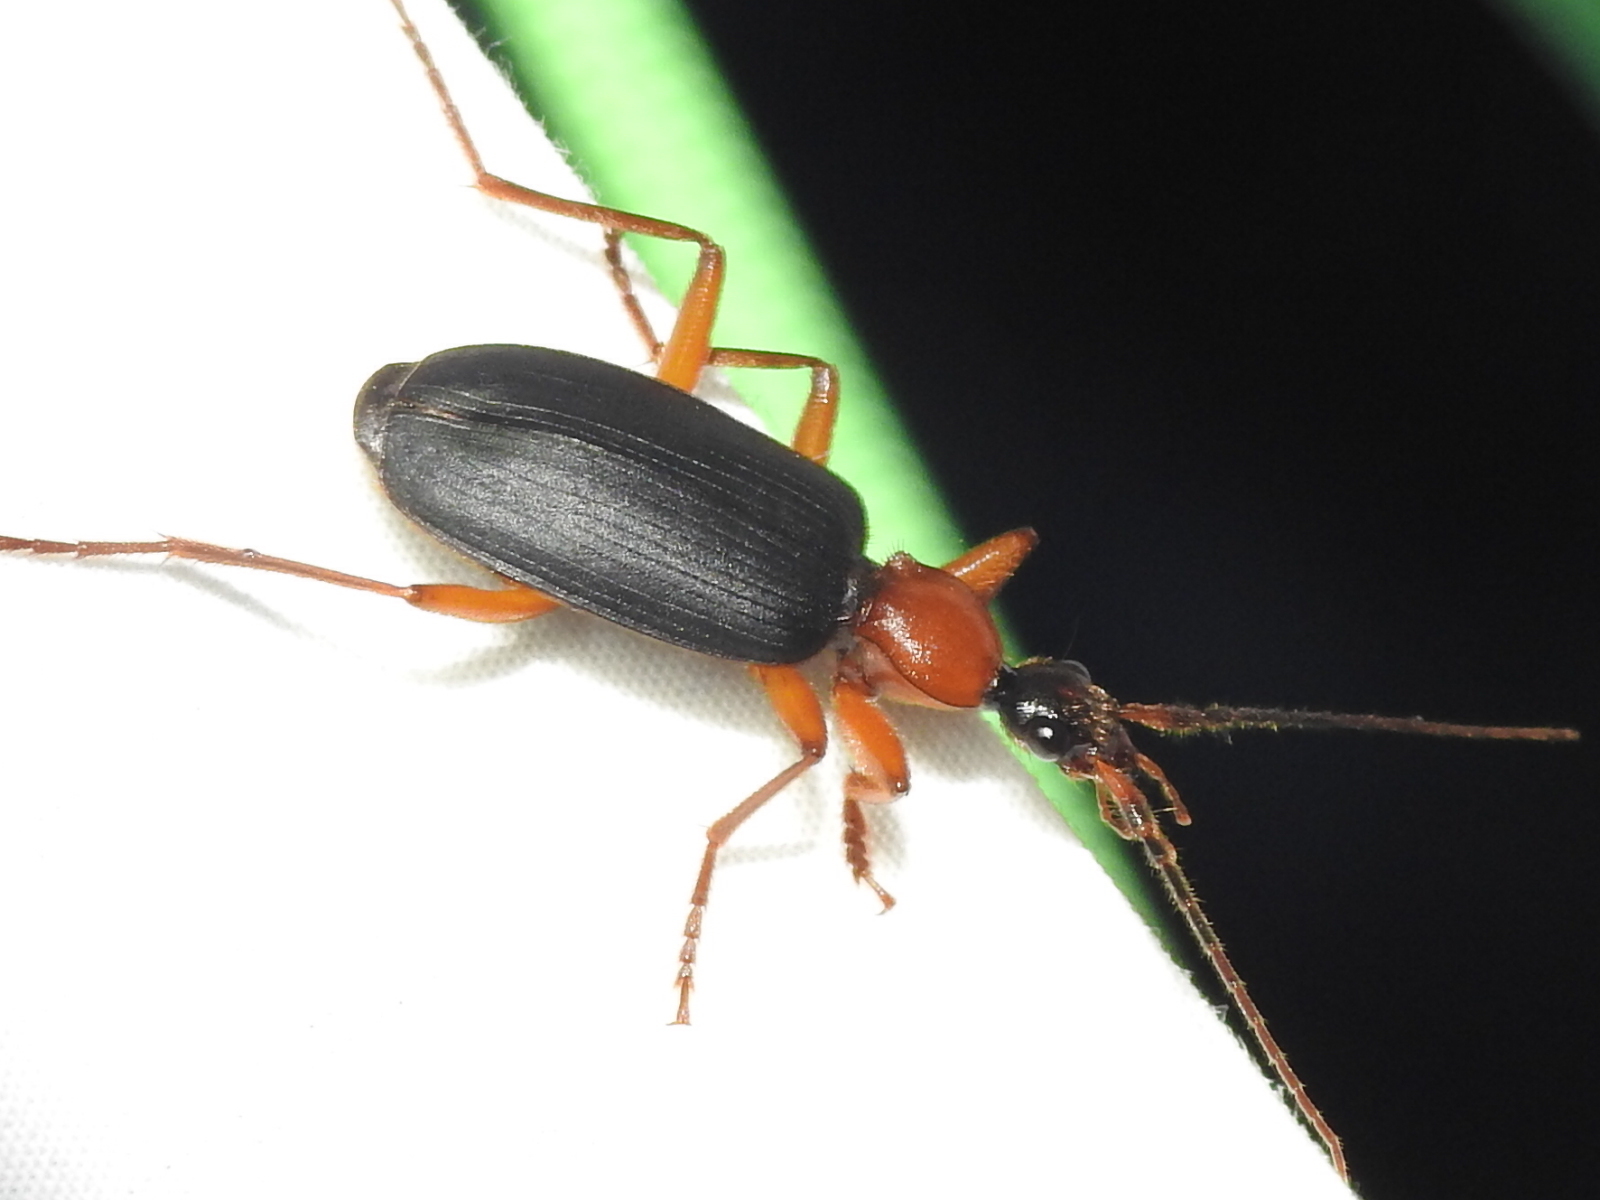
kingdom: Animalia
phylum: Arthropoda
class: Insecta
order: Coleoptera
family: Carabidae
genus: Galerita
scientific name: Galerita bicolor
